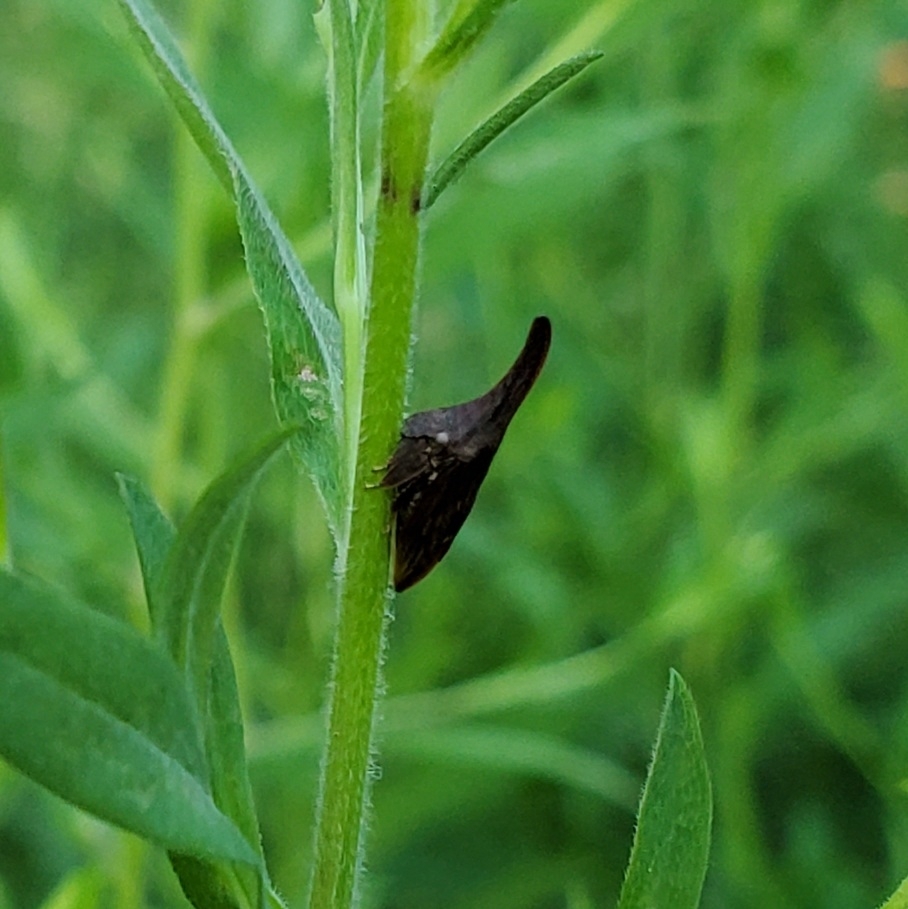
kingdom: Animalia
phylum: Arthropoda
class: Insecta
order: Hemiptera
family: Membracidae
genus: Enchenopa
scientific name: Enchenopa latipes
